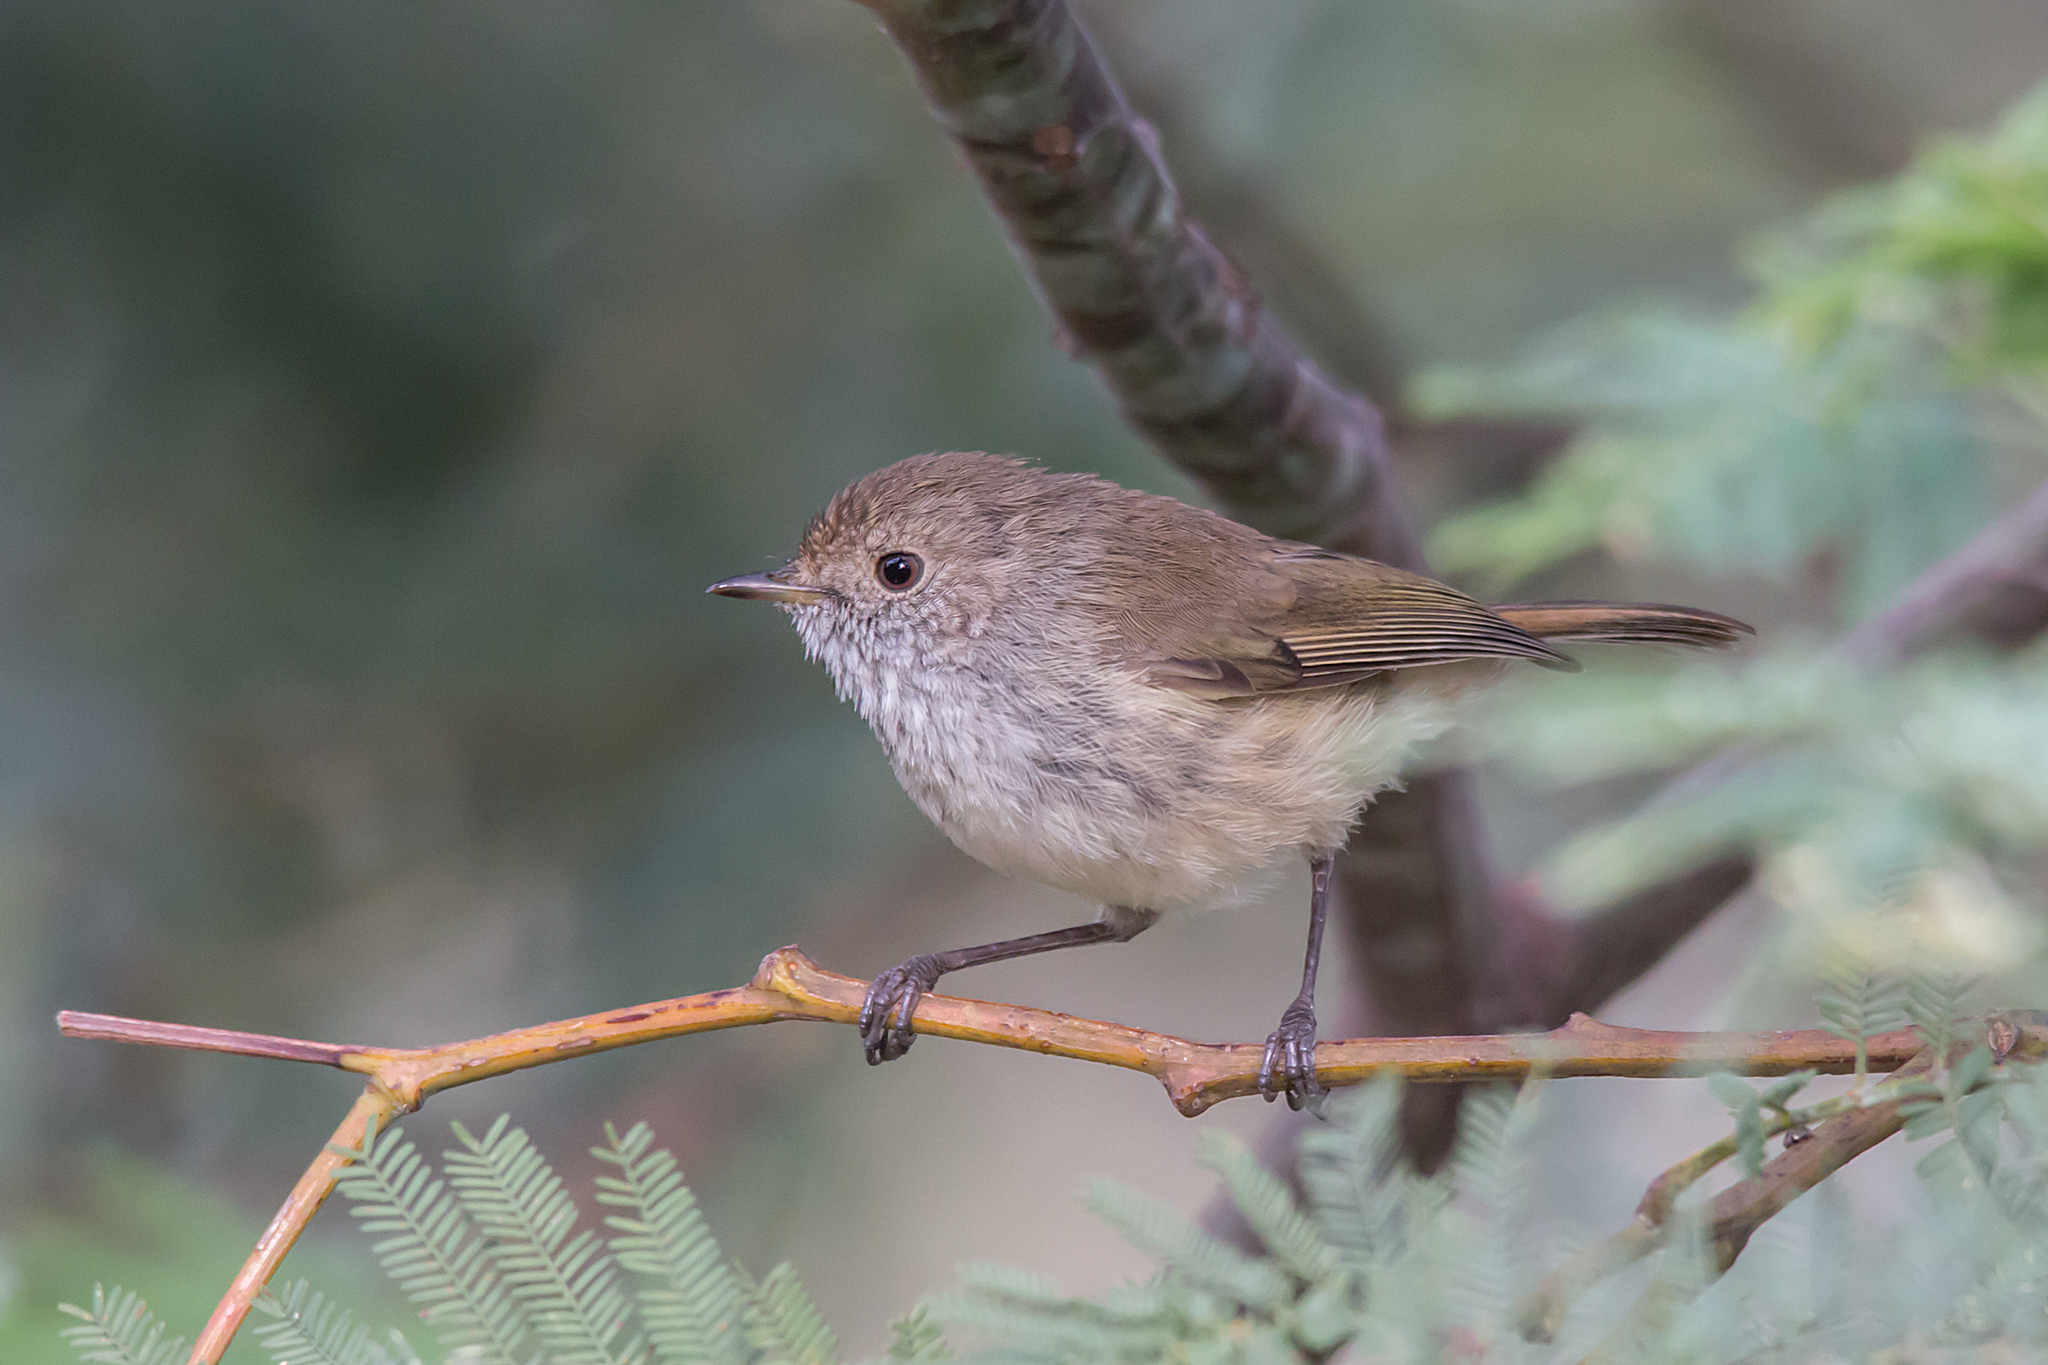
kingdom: Animalia
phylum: Chordata
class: Aves
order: Passeriformes
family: Acanthizidae
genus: Acanthiza
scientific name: Acanthiza pusilla
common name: Brown thornbill
